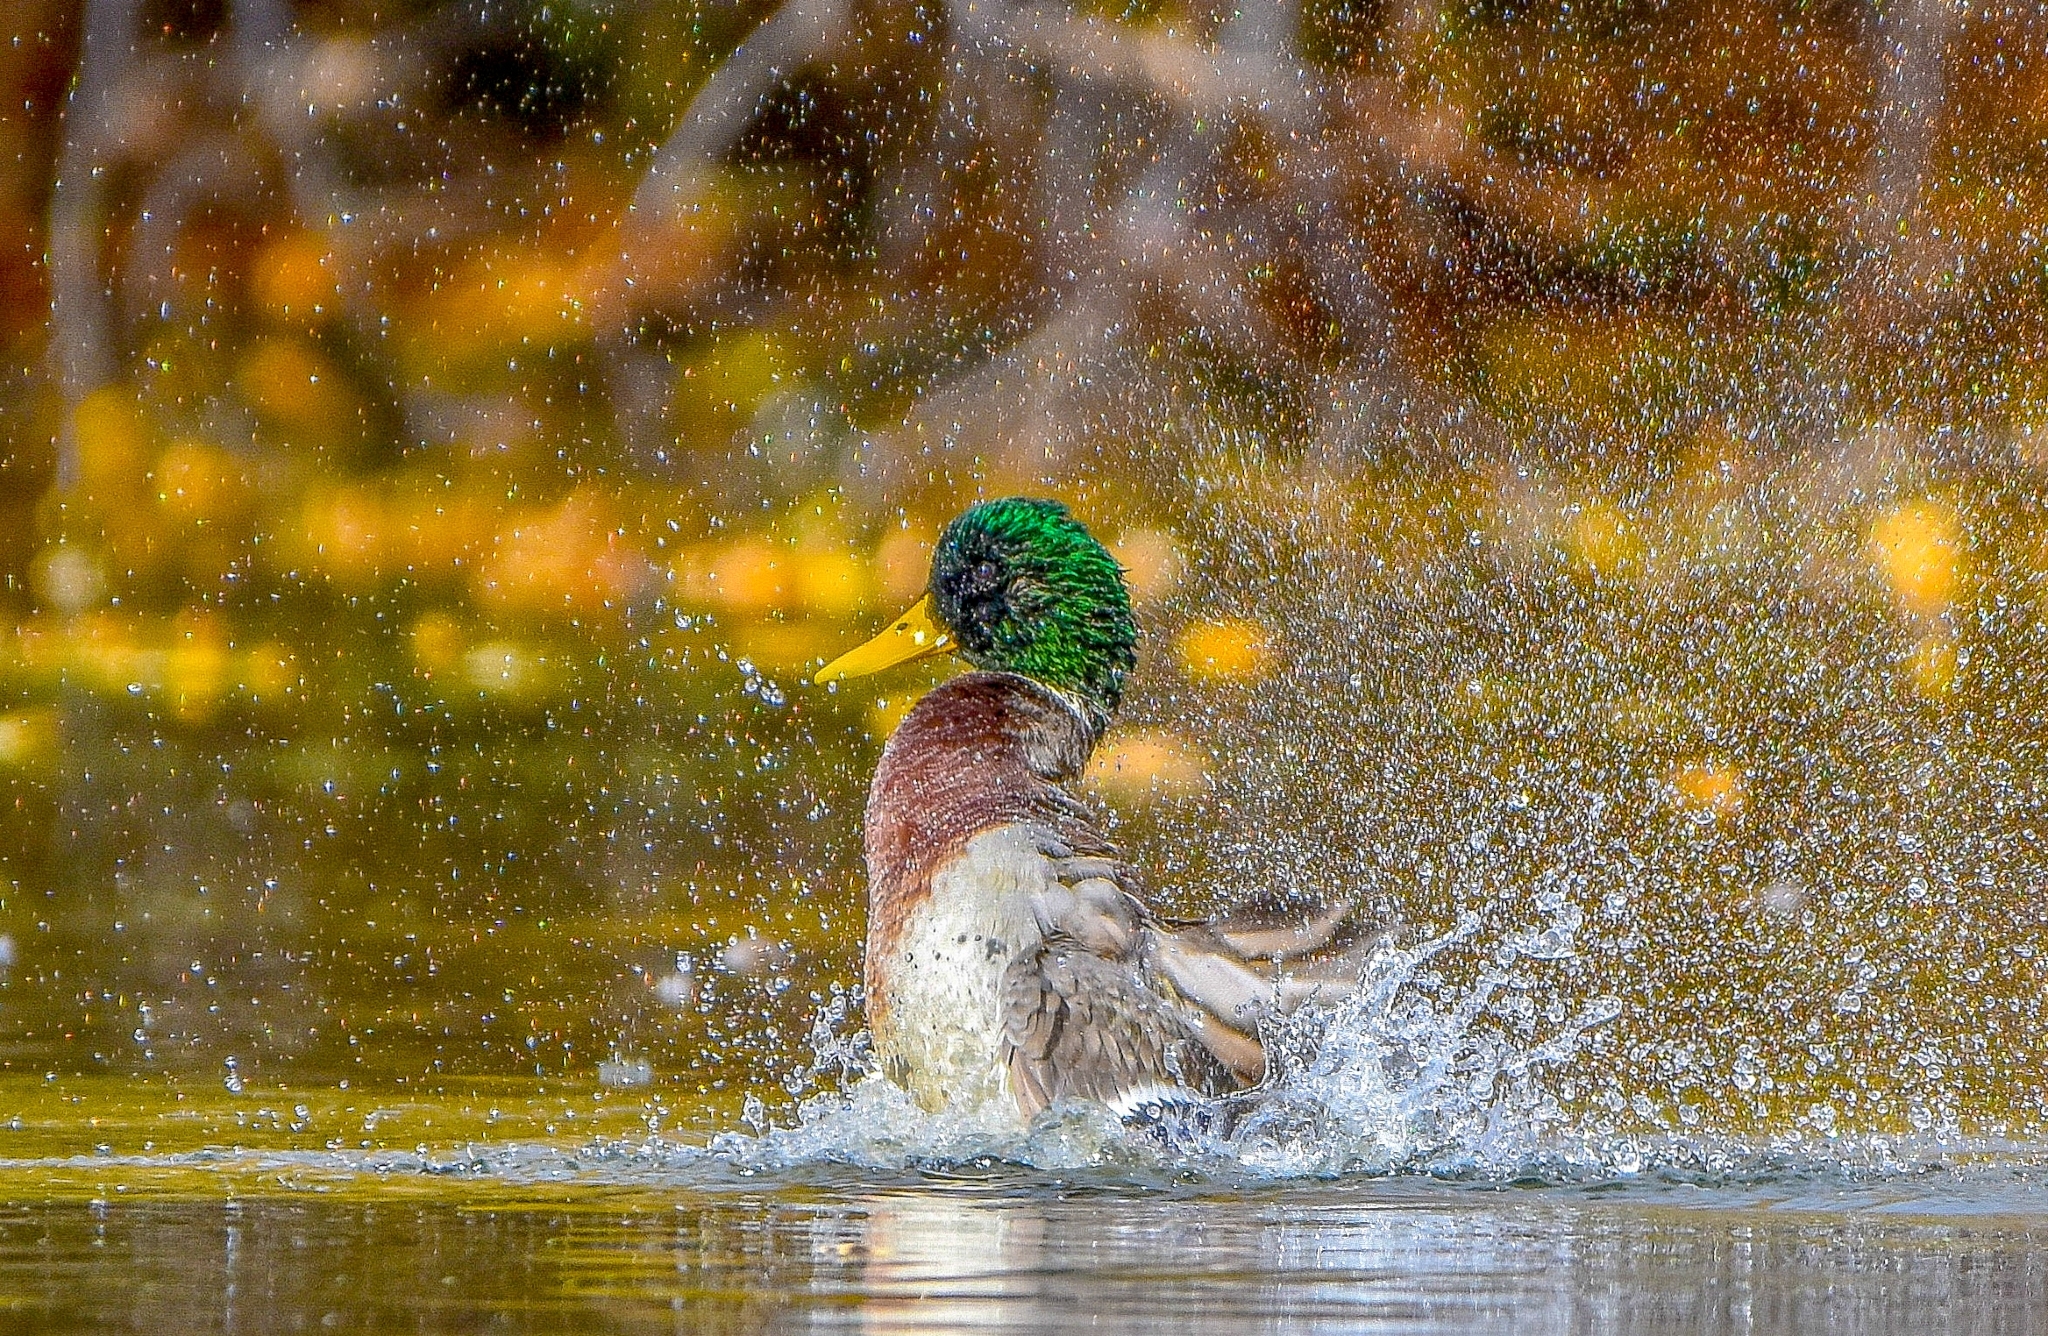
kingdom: Animalia
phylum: Chordata
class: Aves
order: Anseriformes
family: Anatidae
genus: Anas
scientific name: Anas platyrhynchos
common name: Mallard
